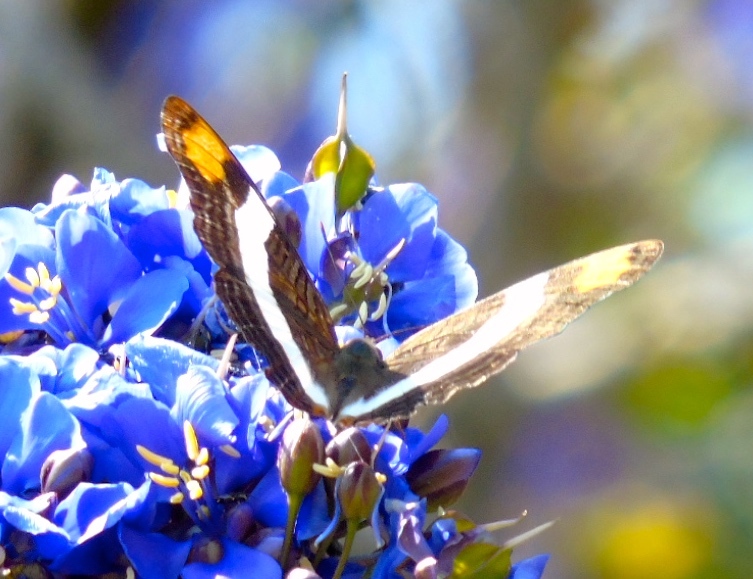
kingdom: Animalia
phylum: Arthropoda
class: Insecta
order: Lepidoptera
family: Nymphalidae
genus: Limenitis
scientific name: Limenitis fessonia
